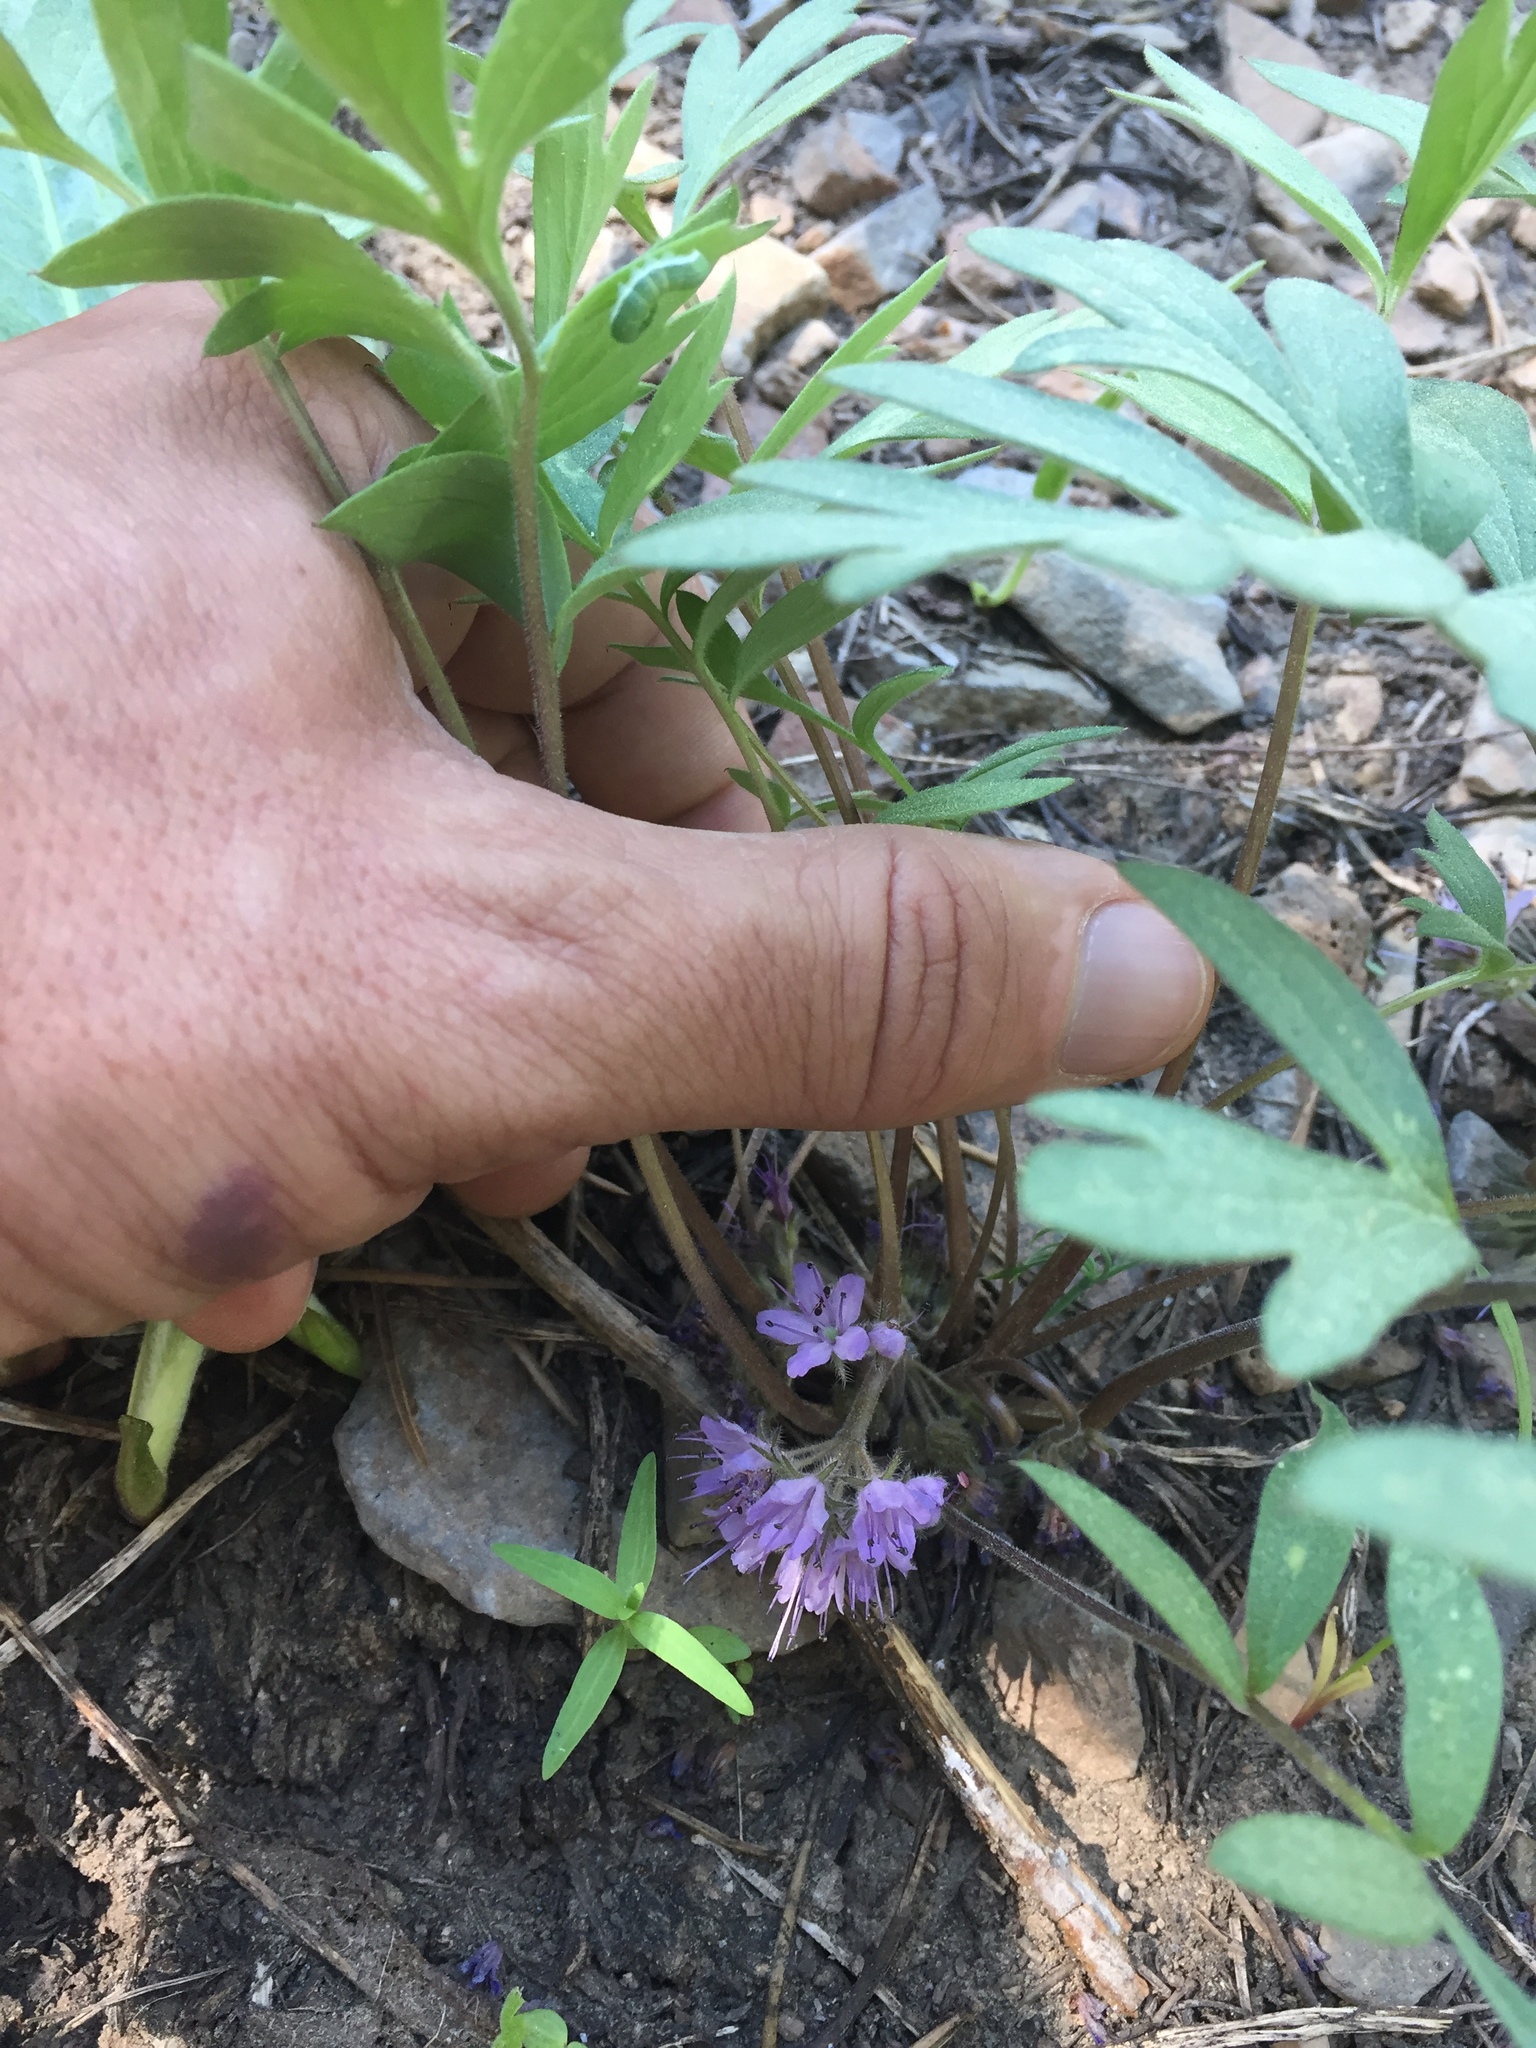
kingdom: Plantae
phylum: Tracheophyta
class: Magnoliopsida
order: Boraginales
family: Hydrophyllaceae
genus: Hydrophyllum
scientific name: Hydrophyllum alpestre
